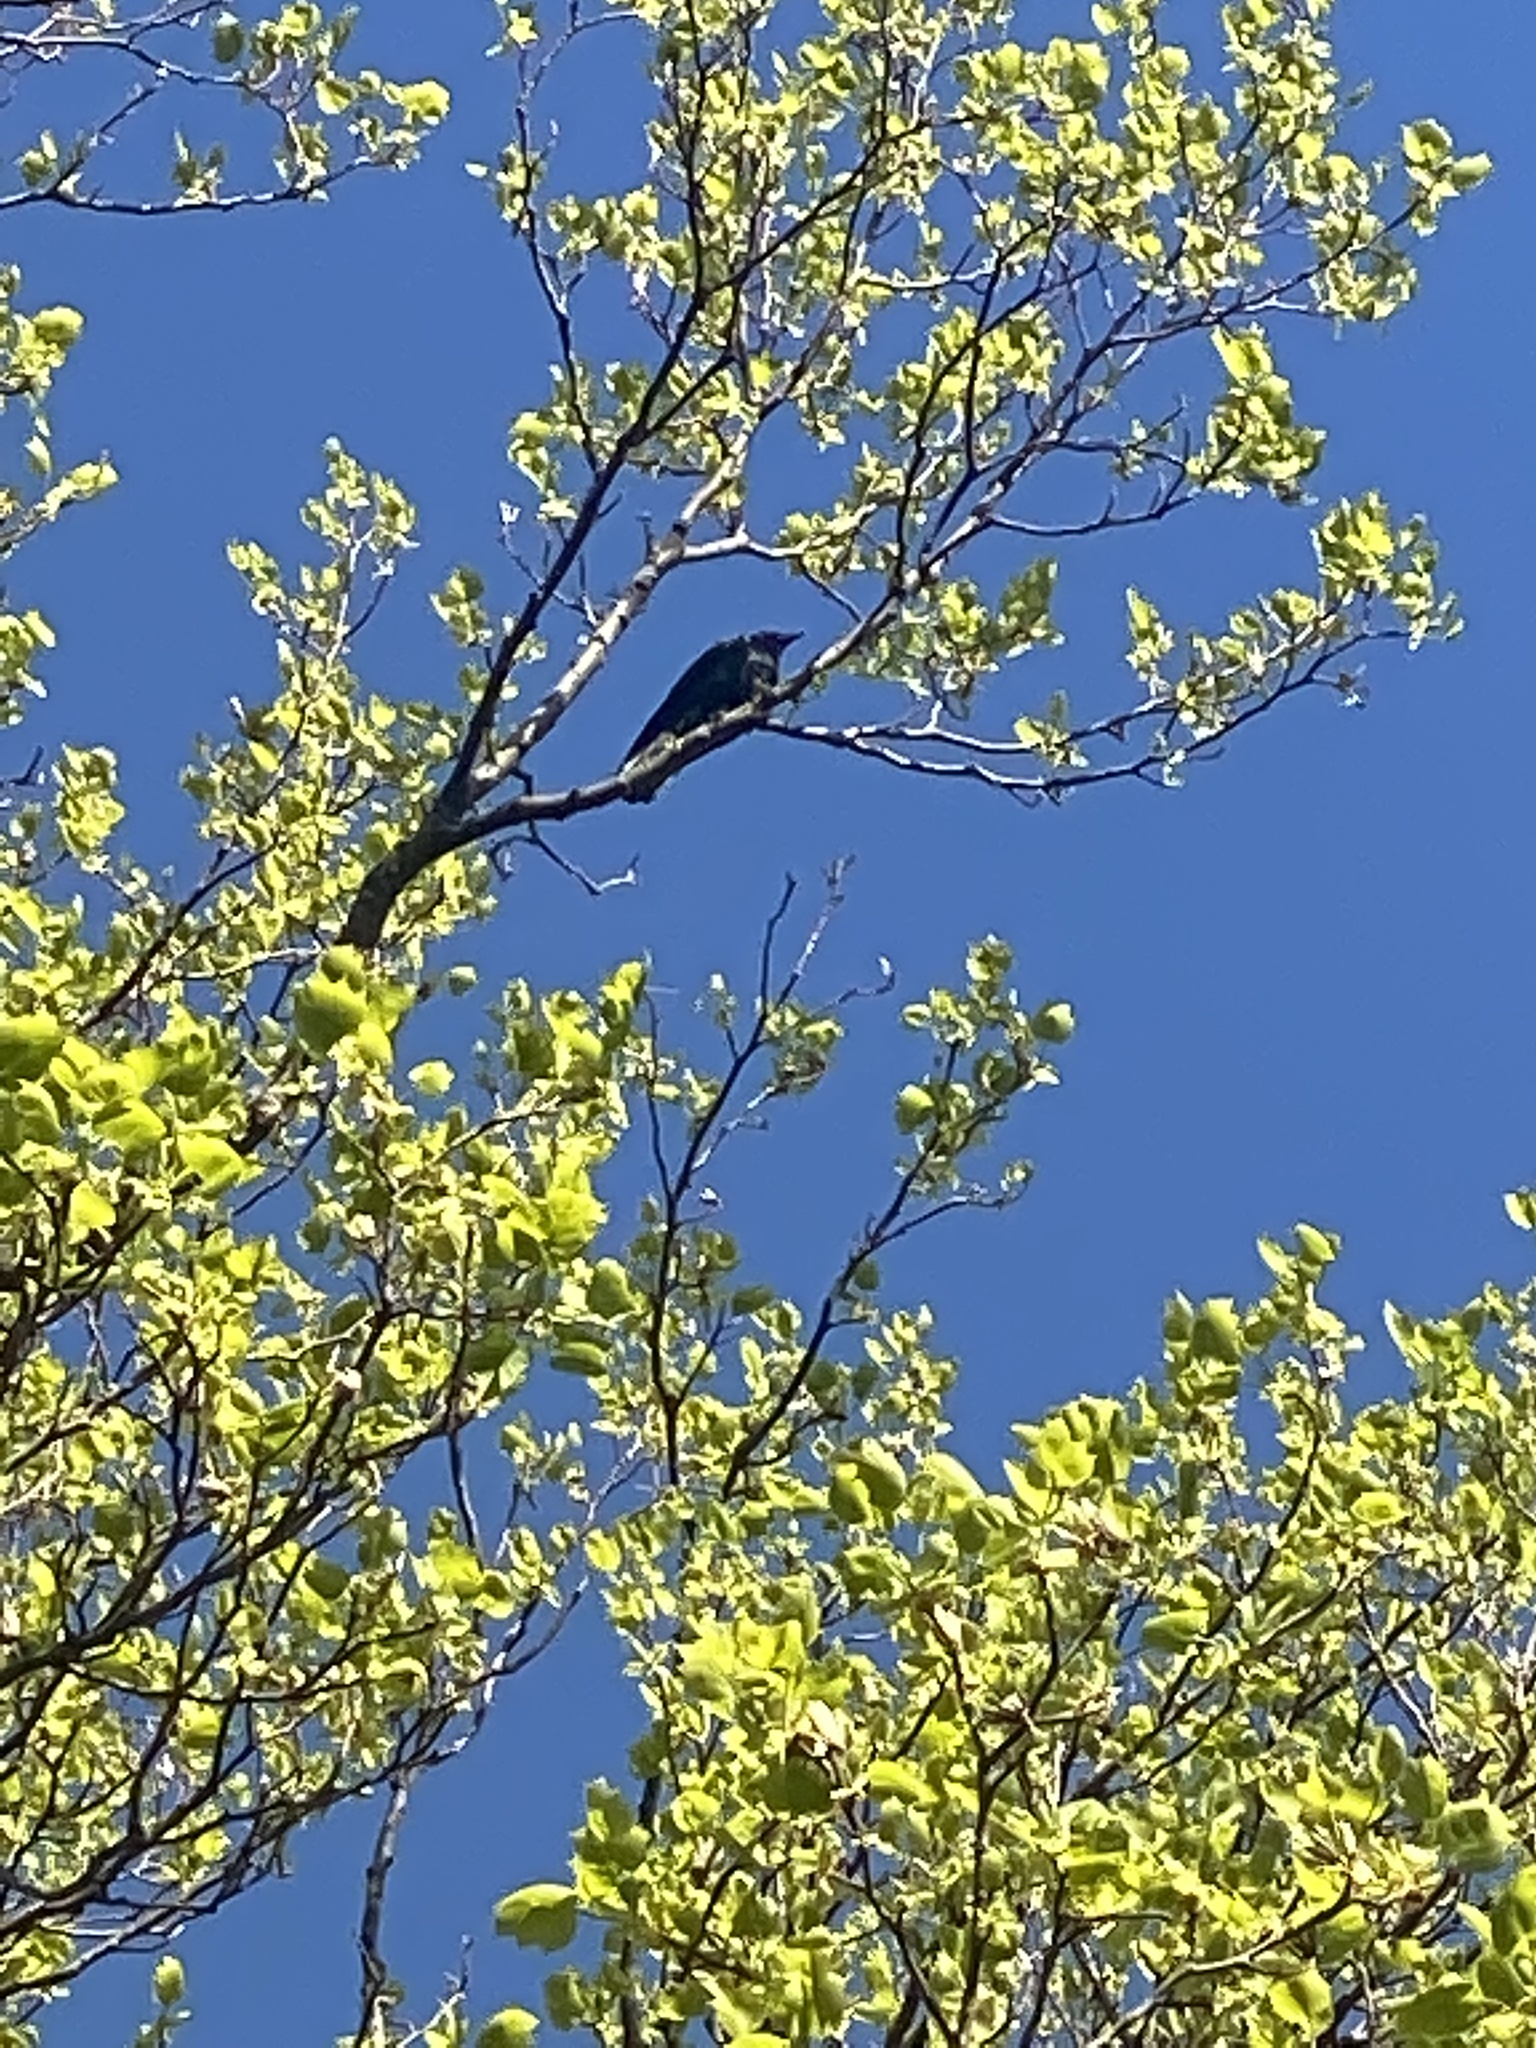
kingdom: Animalia
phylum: Chordata
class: Aves
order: Passeriformes
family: Corvidae
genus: Corvus
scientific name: Corvus ossifragus
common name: Fish crow
